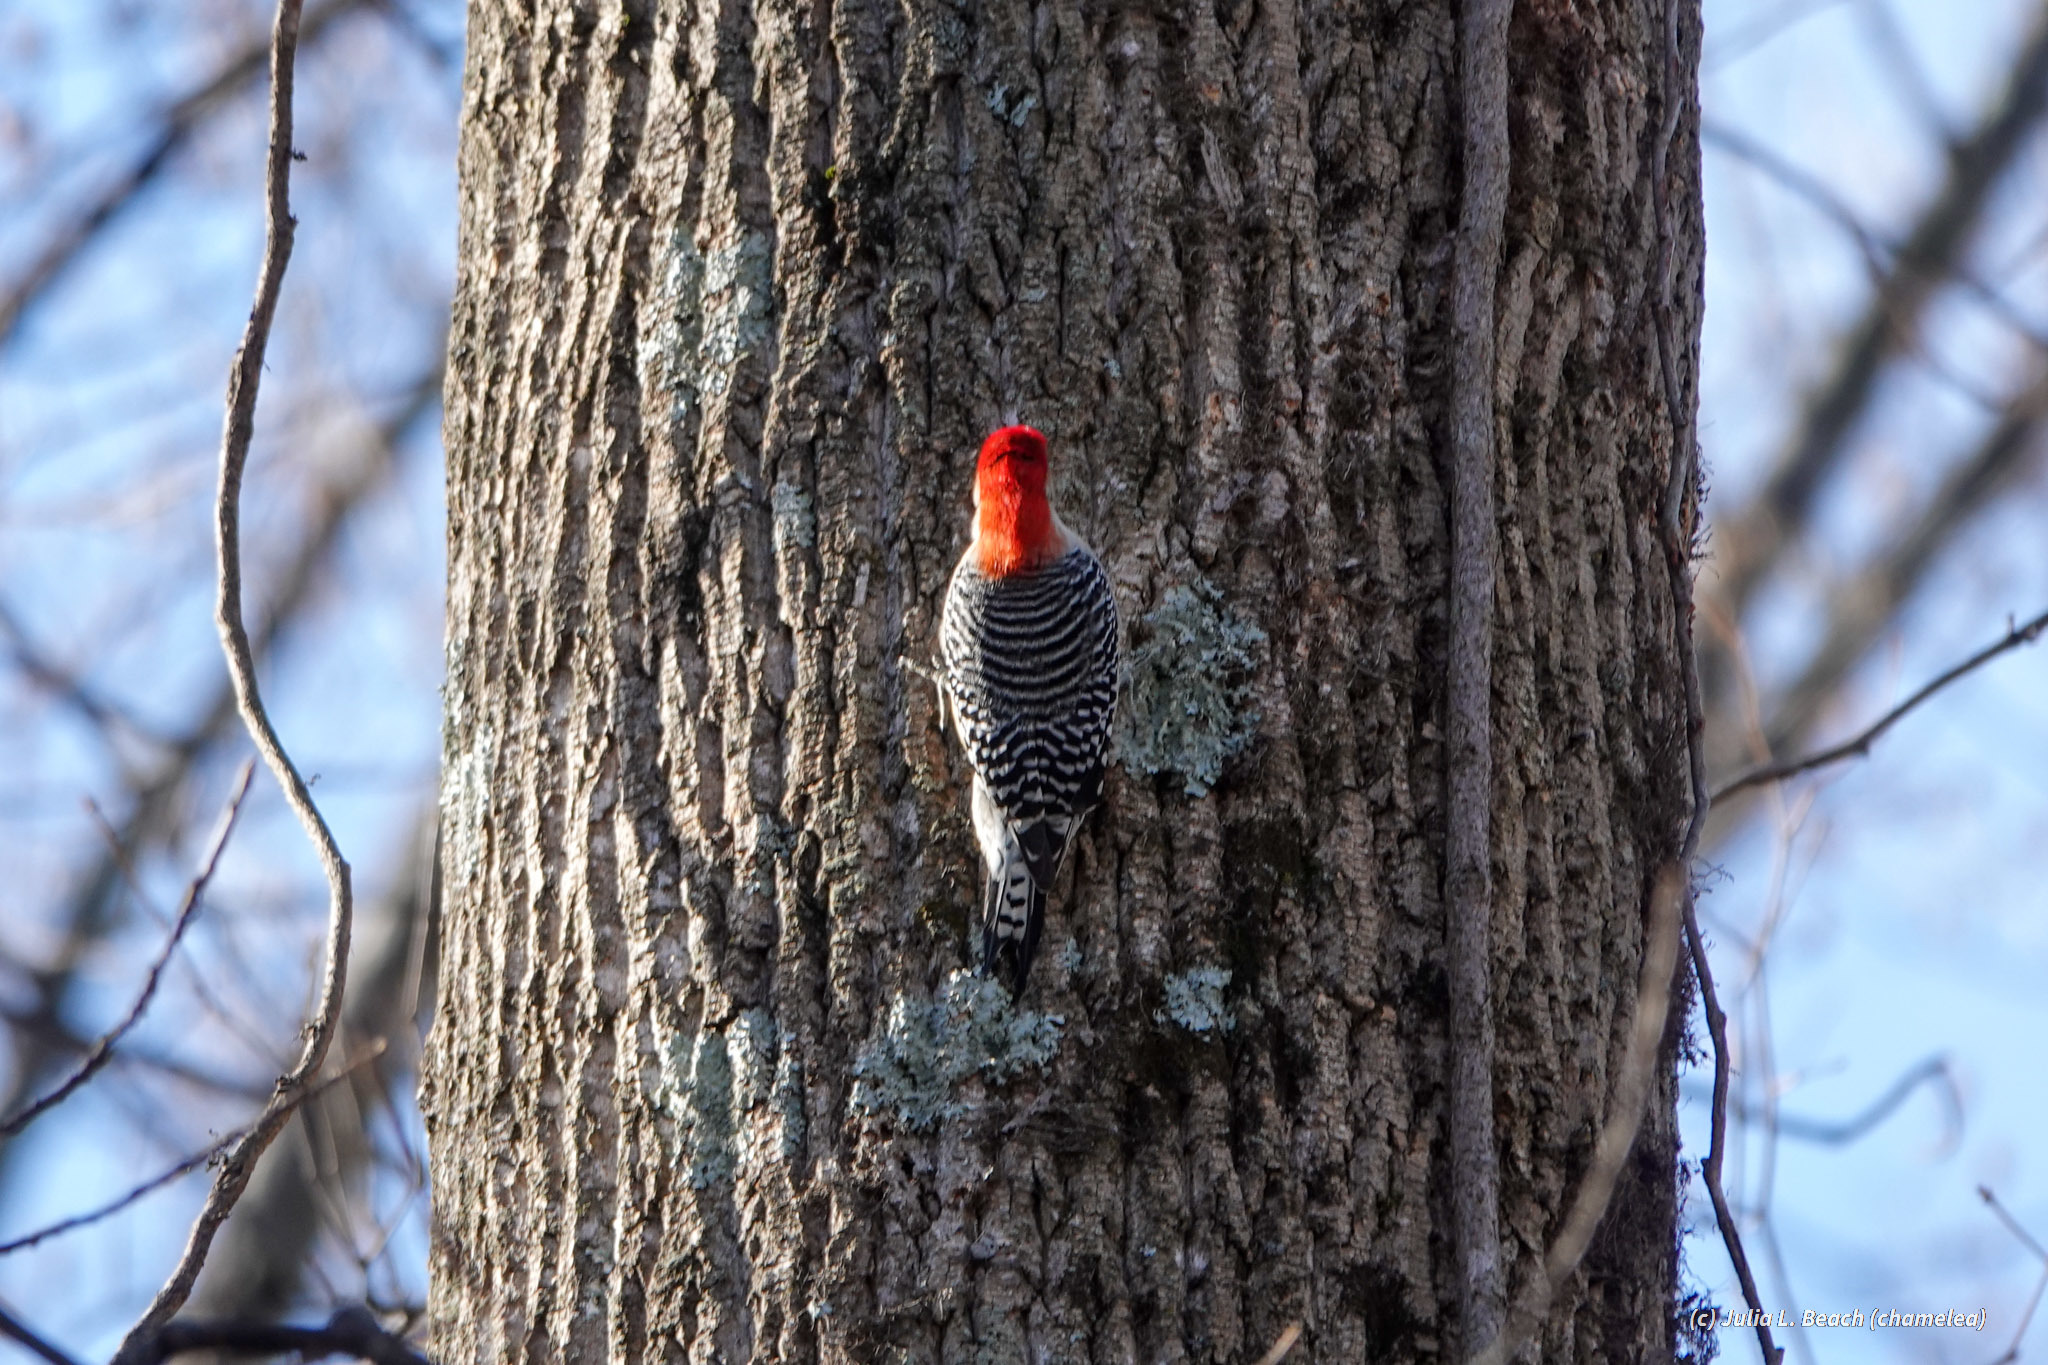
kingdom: Animalia
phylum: Chordata
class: Aves
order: Piciformes
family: Picidae
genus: Melanerpes
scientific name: Melanerpes carolinus
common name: Red-bellied woodpecker
